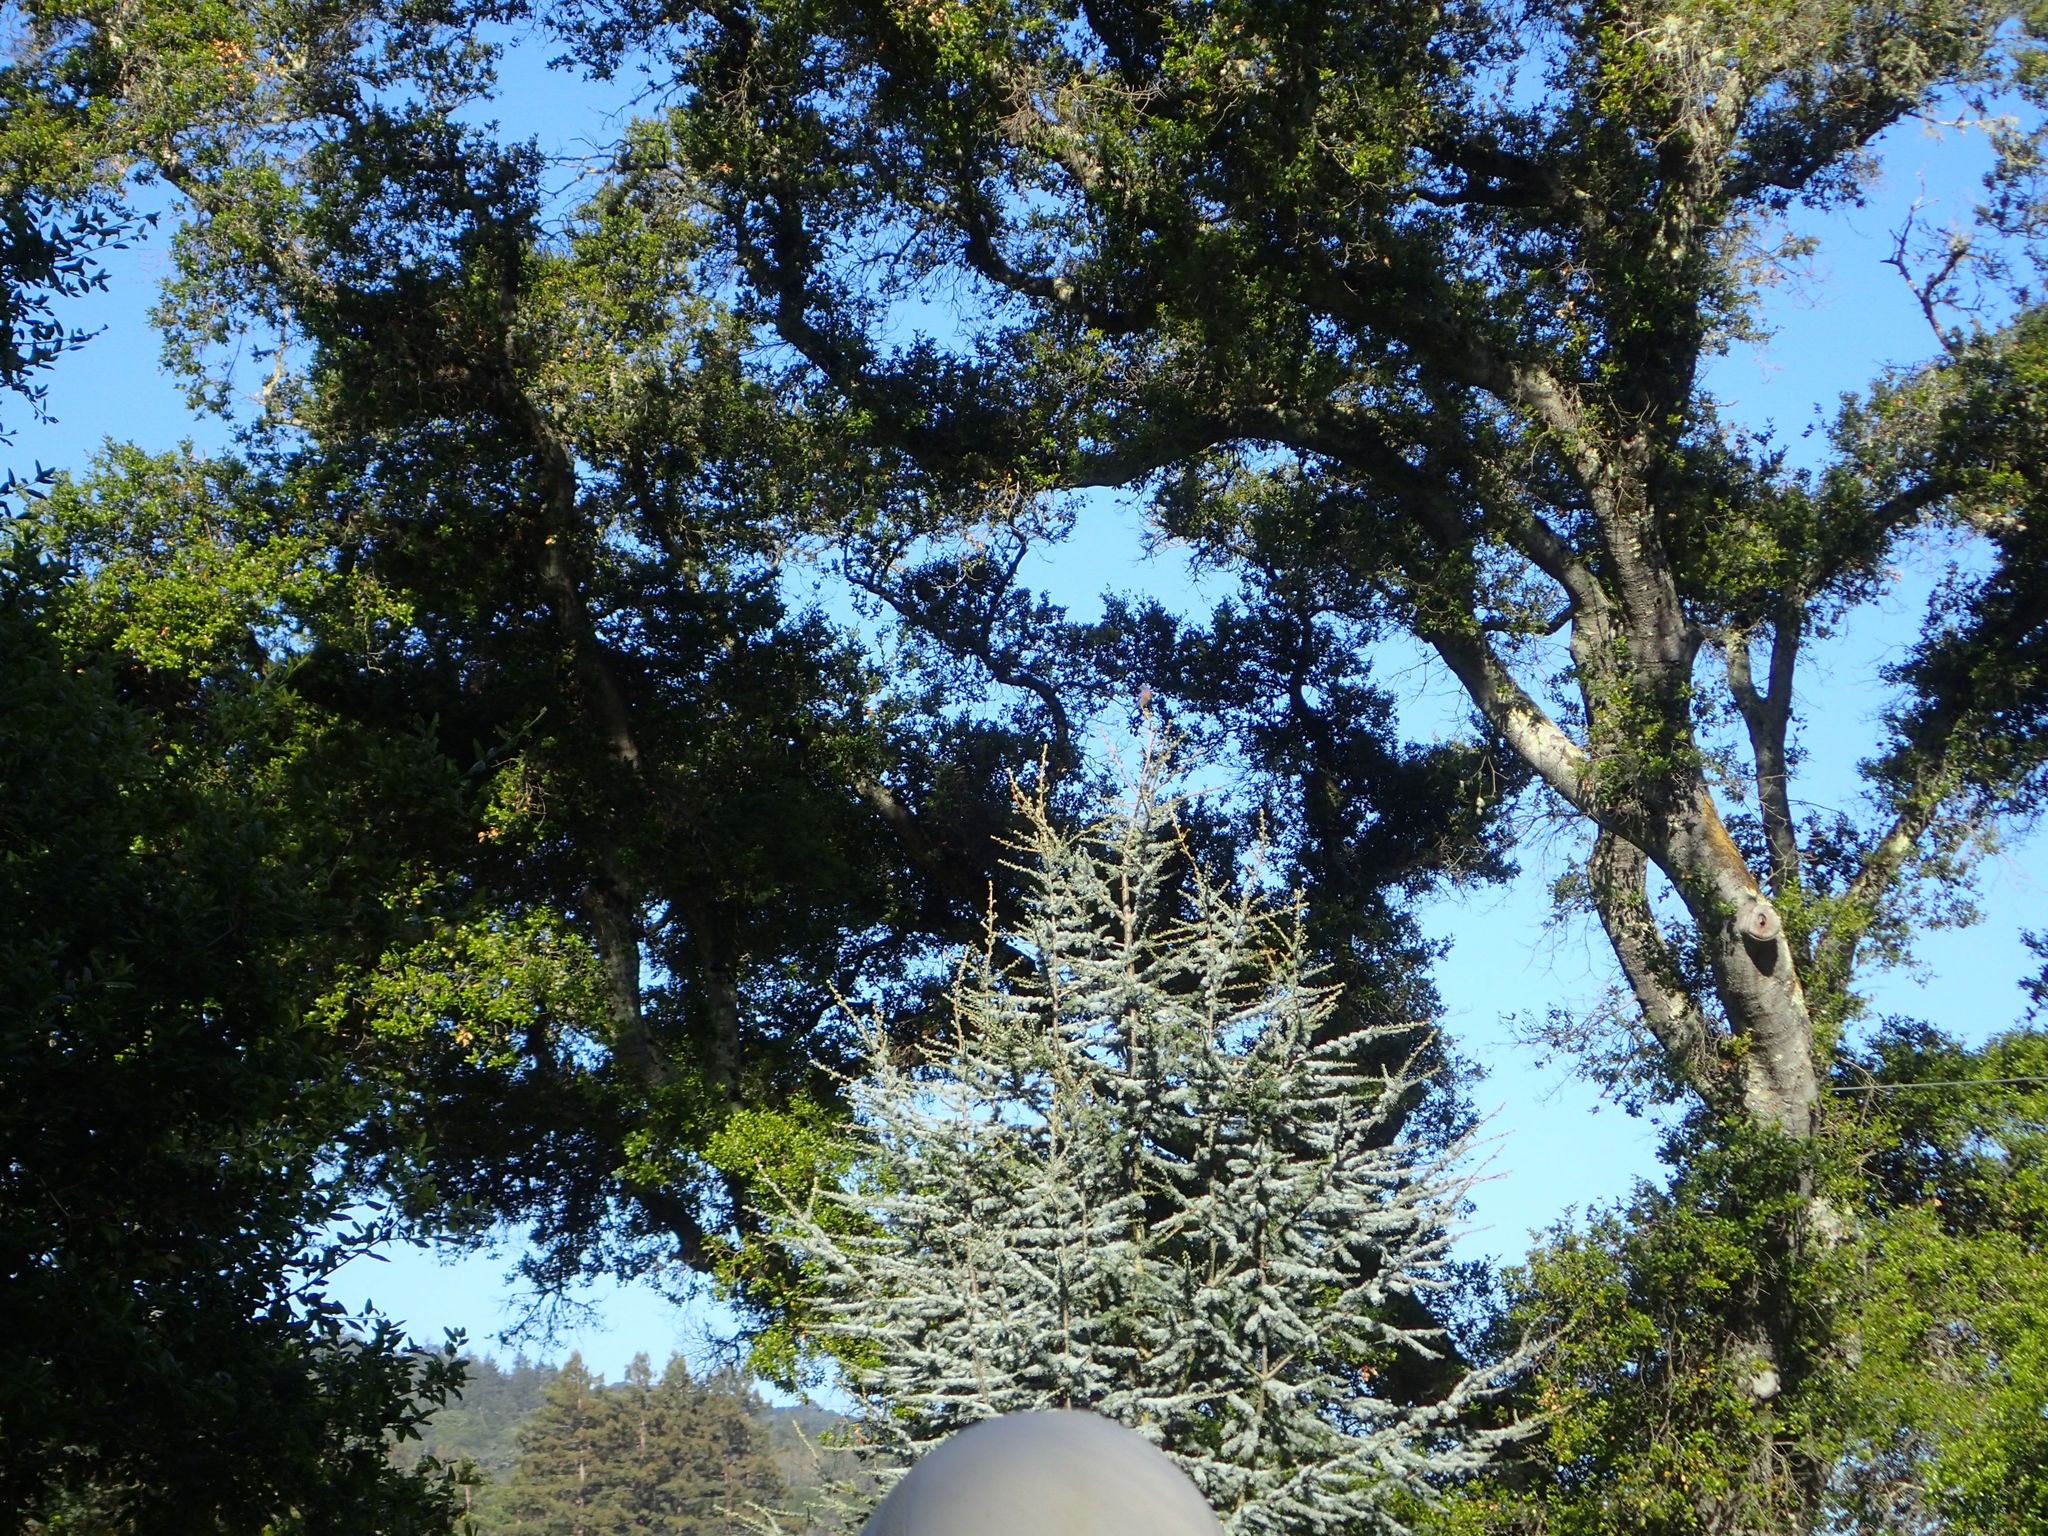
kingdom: Animalia
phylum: Chordata
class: Aves
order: Passeriformes
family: Turdidae
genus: Sialia
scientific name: Sialia mexicana
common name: Western bluebird
